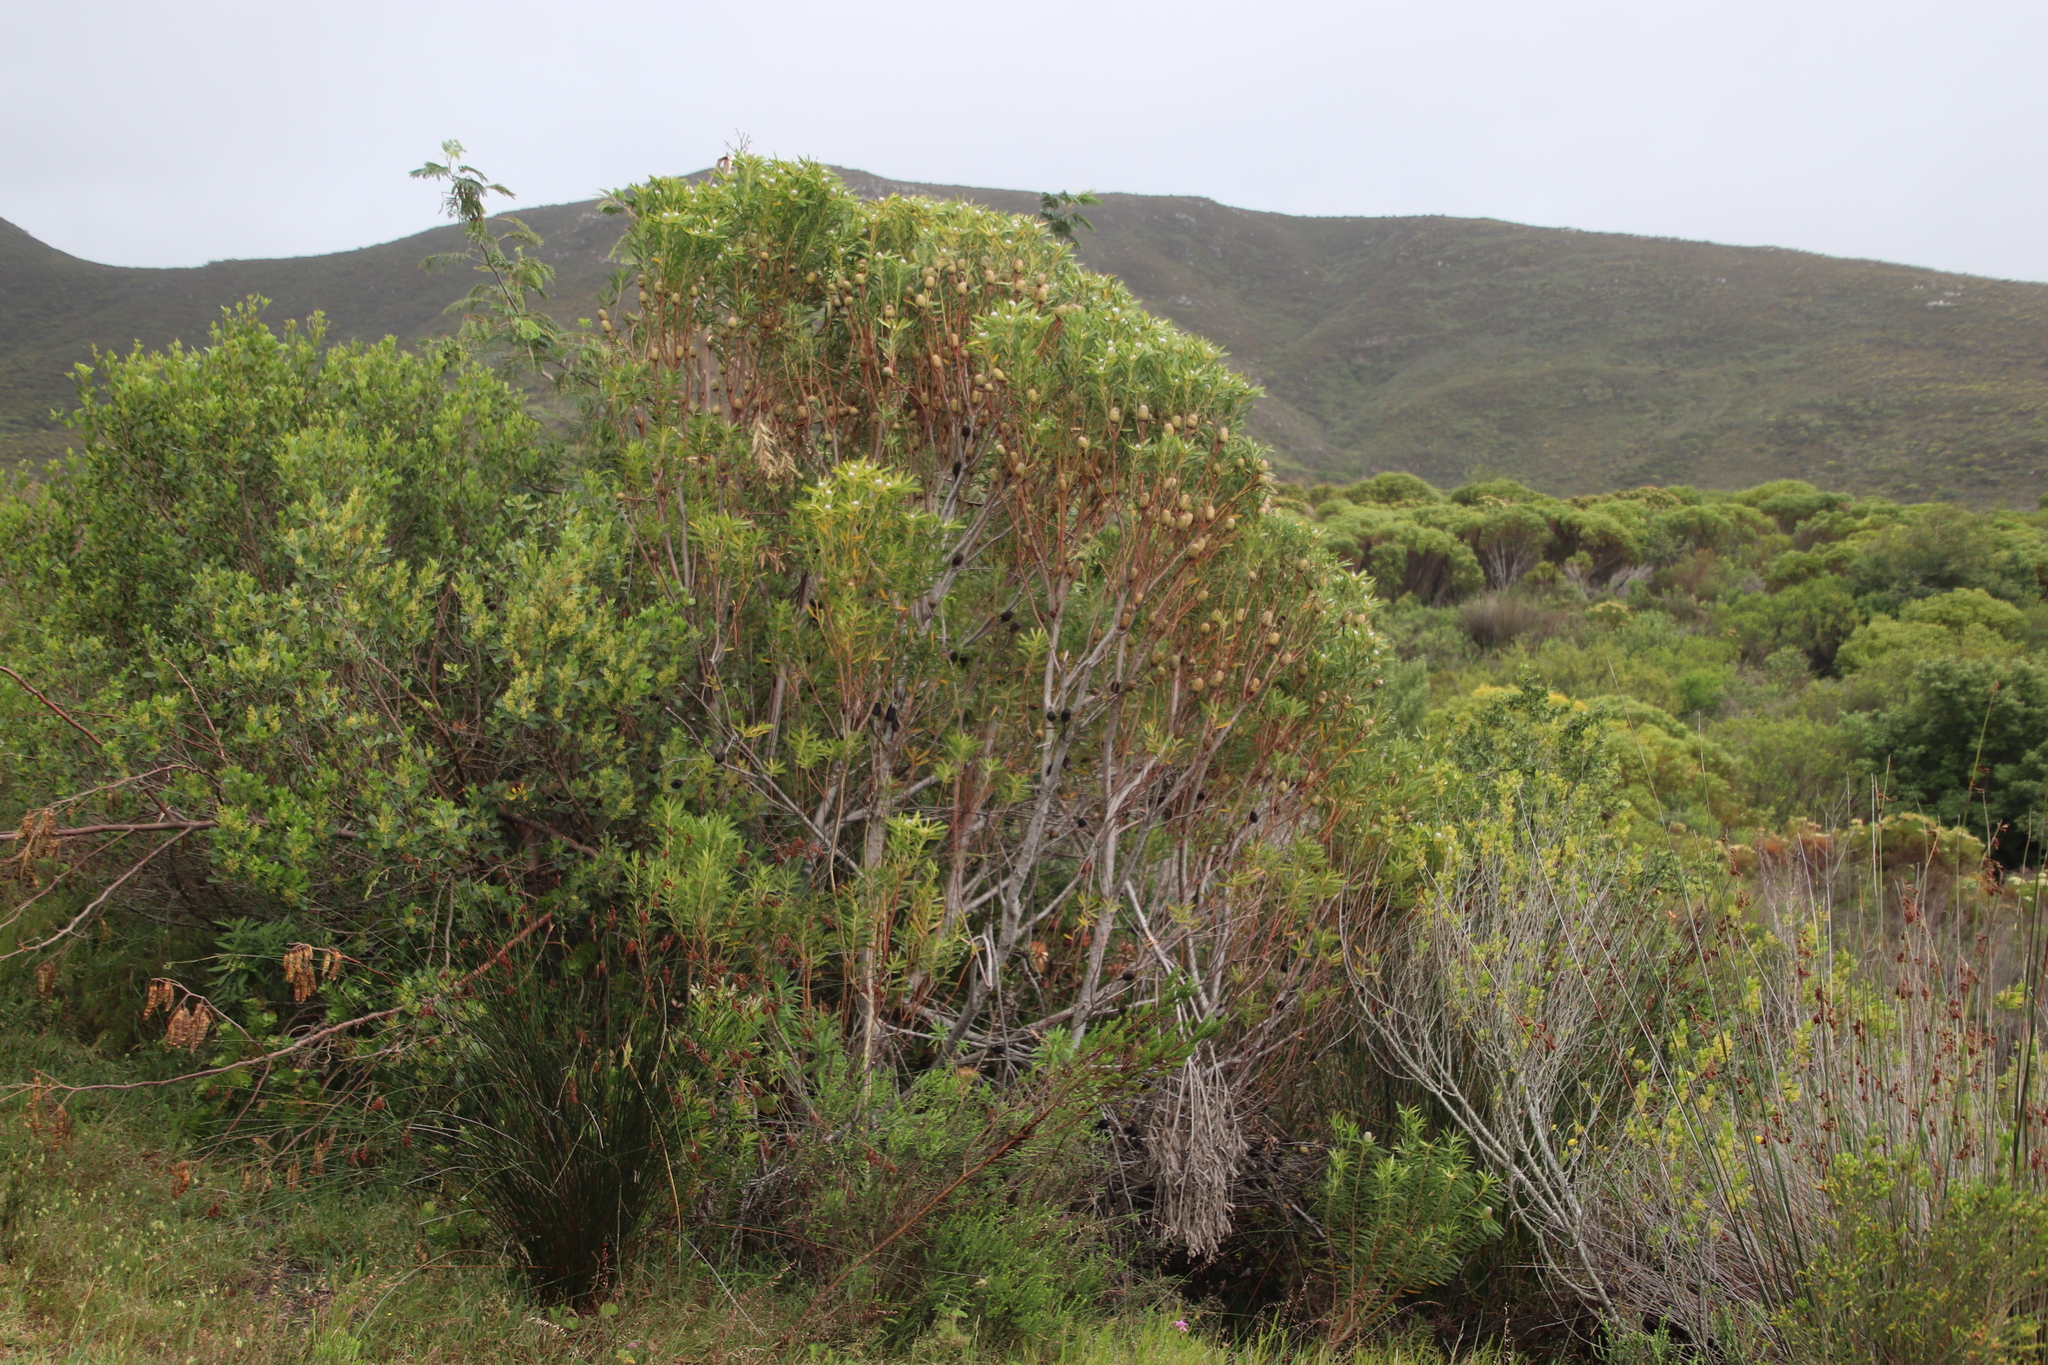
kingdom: Plantae
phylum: Tracheophyta
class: Magnoliopsida
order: Proteales
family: Proteaceae
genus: Leucadendron
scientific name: Leucadendron coniferum
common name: Dune conebush
